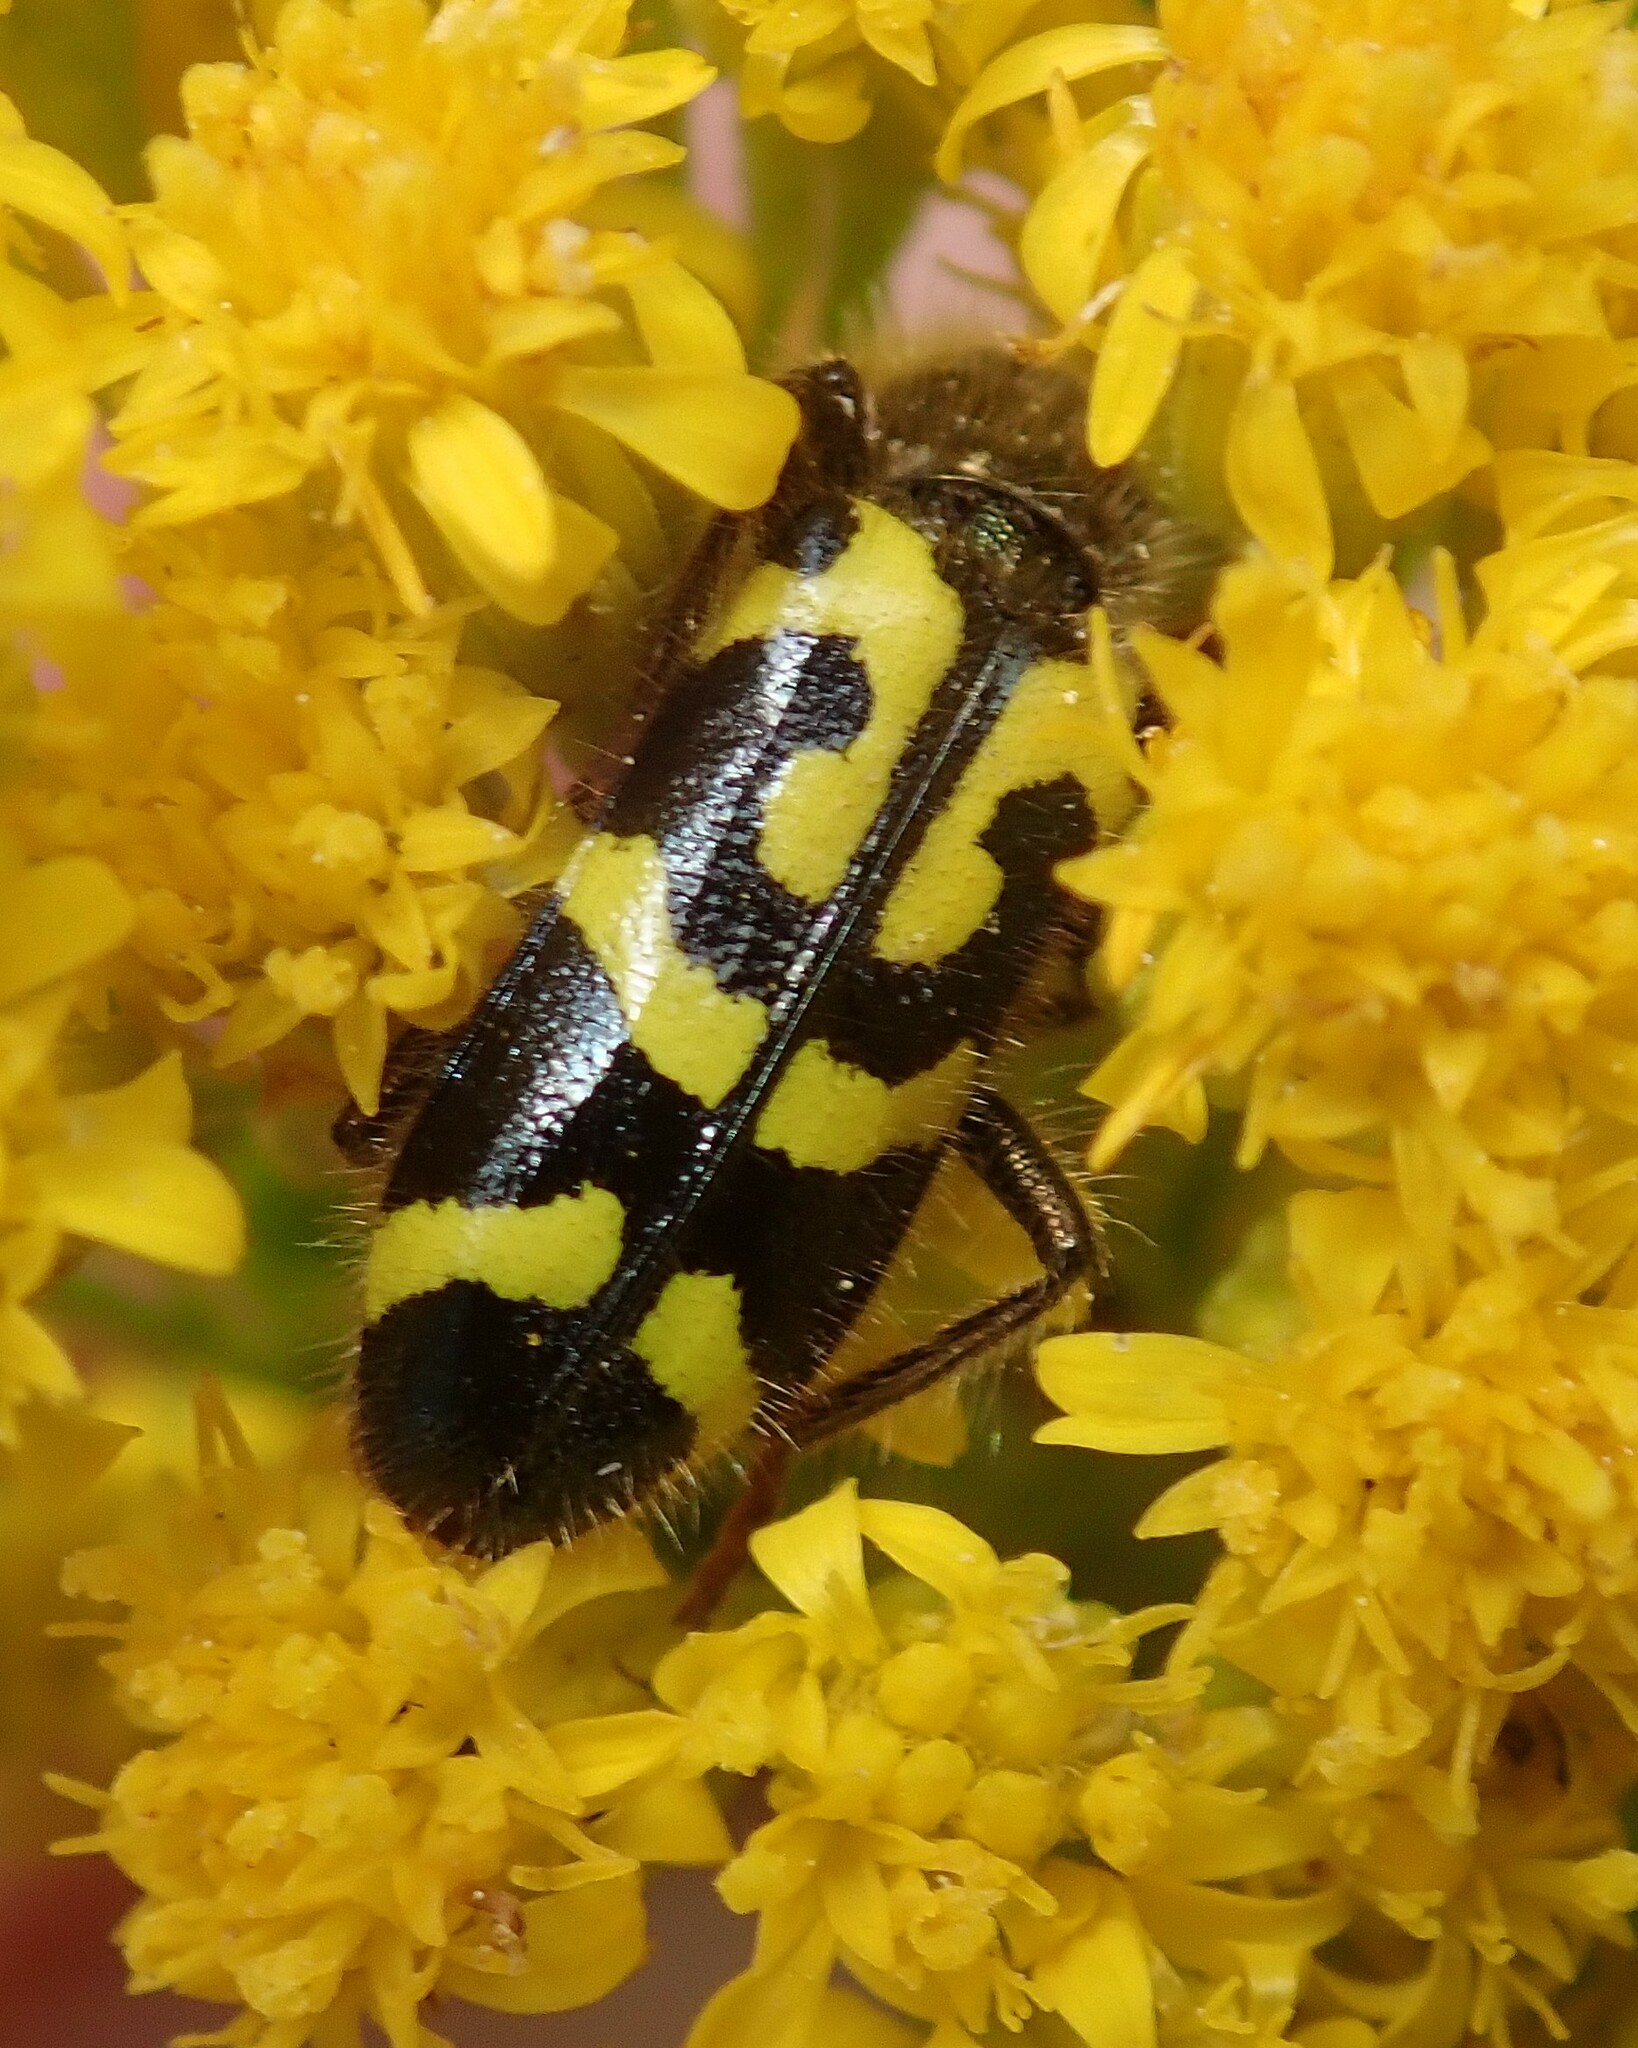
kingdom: Animalia
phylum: Arthropoda
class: Insecta
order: Coleoptera
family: Cleridae
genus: Trichodes
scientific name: Trichodes ornatus
